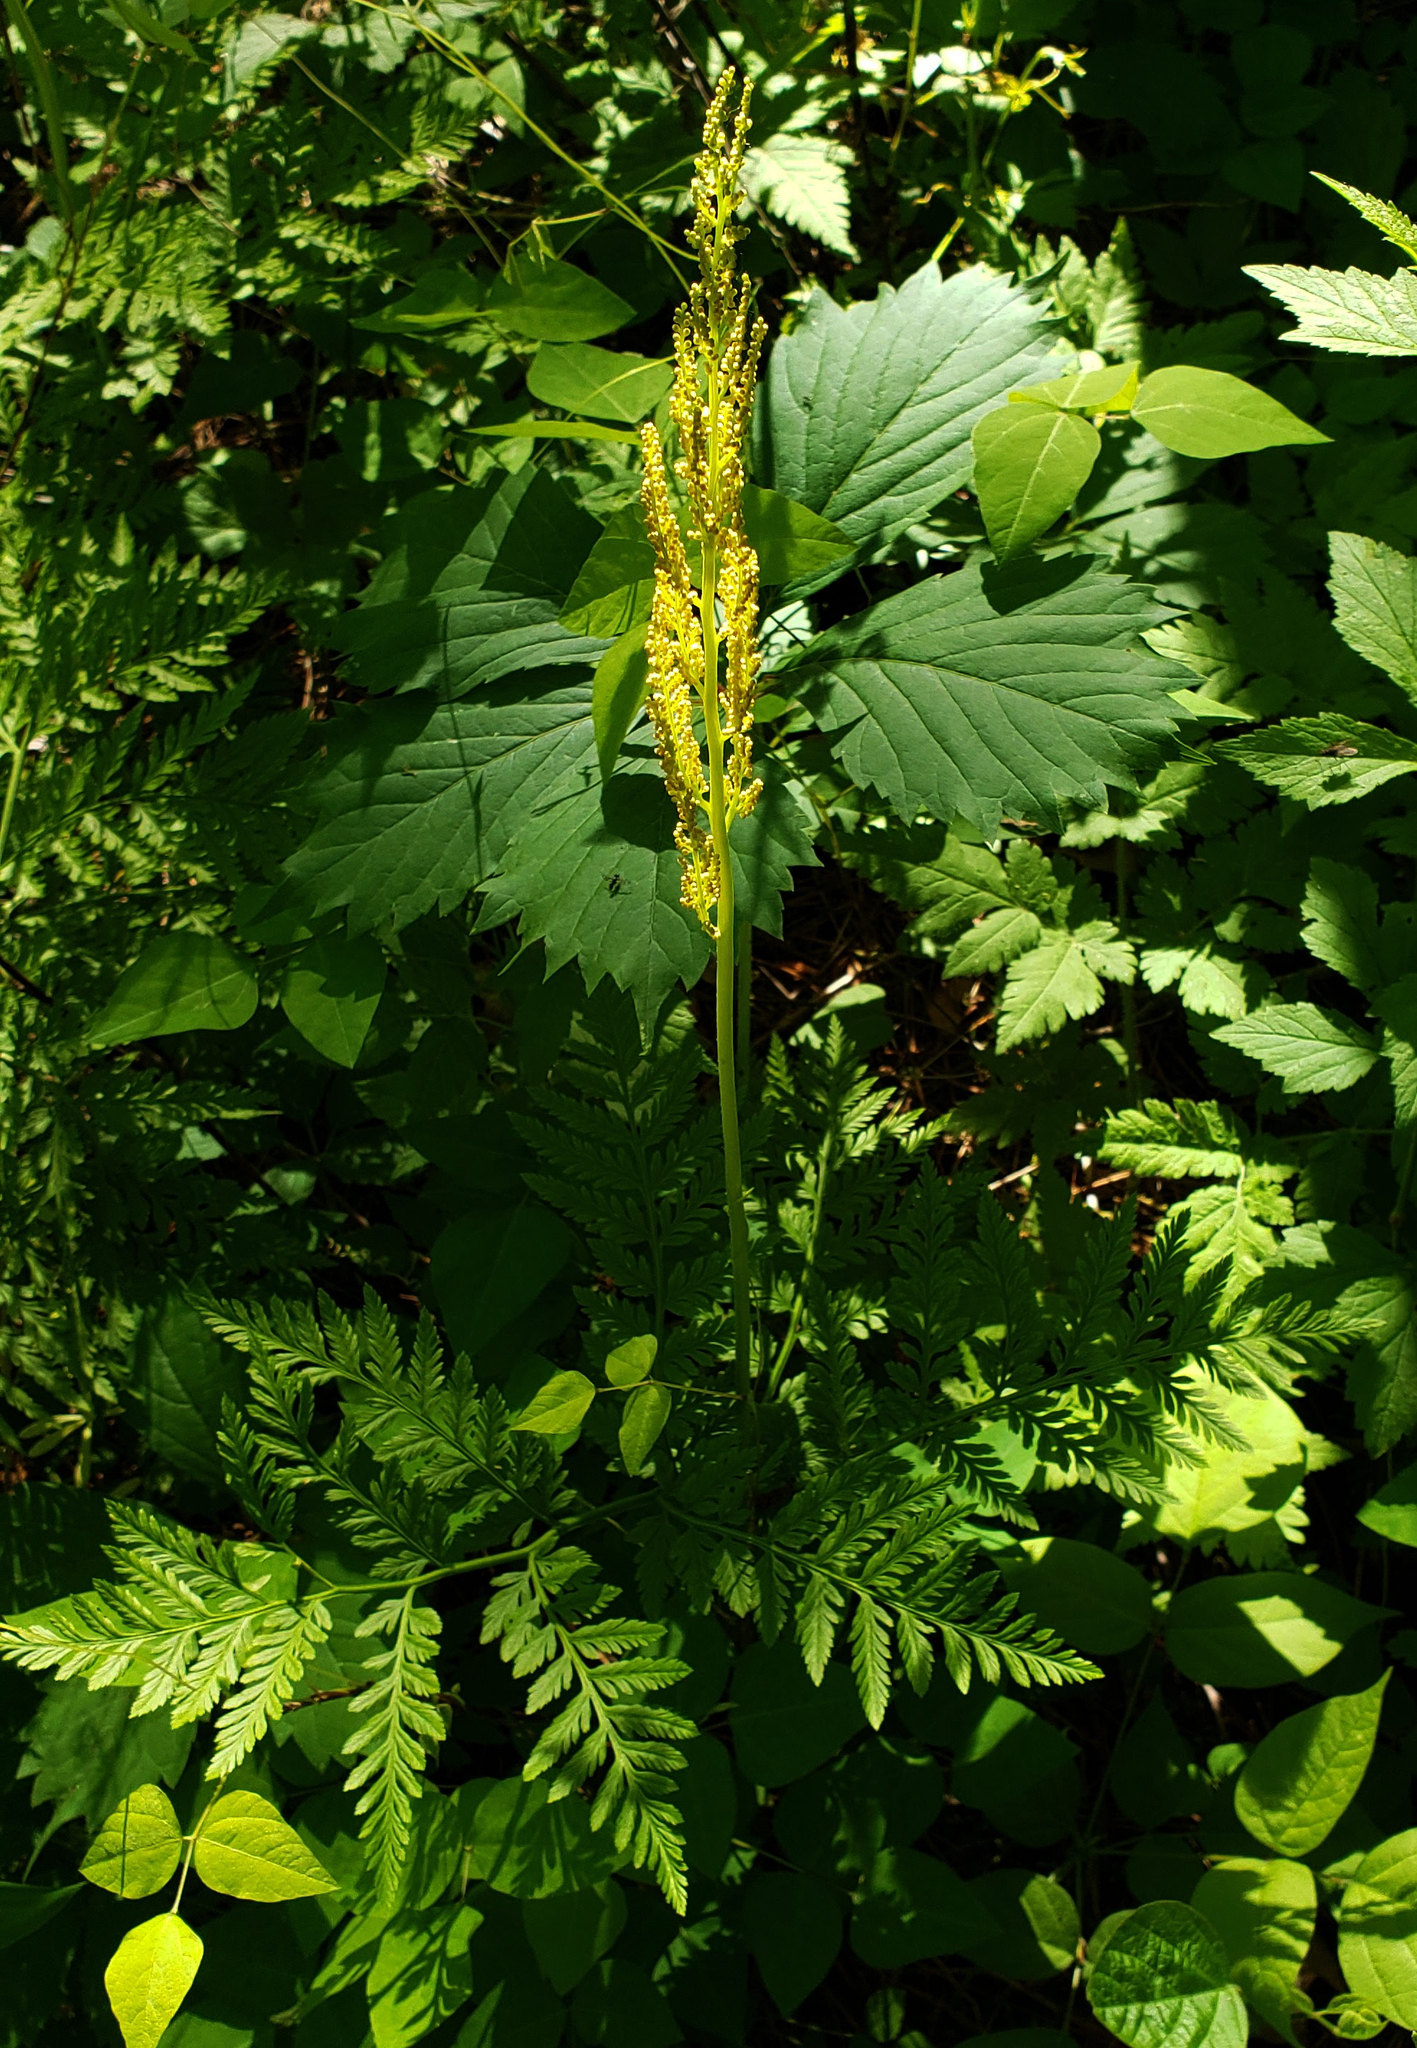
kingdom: Plantae
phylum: Tracheophyta
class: Polypodiopsida
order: Ophioglossales
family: Ophioglossaceae
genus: Botrypus
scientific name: Botrypus virginianus
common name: Common grapefern
